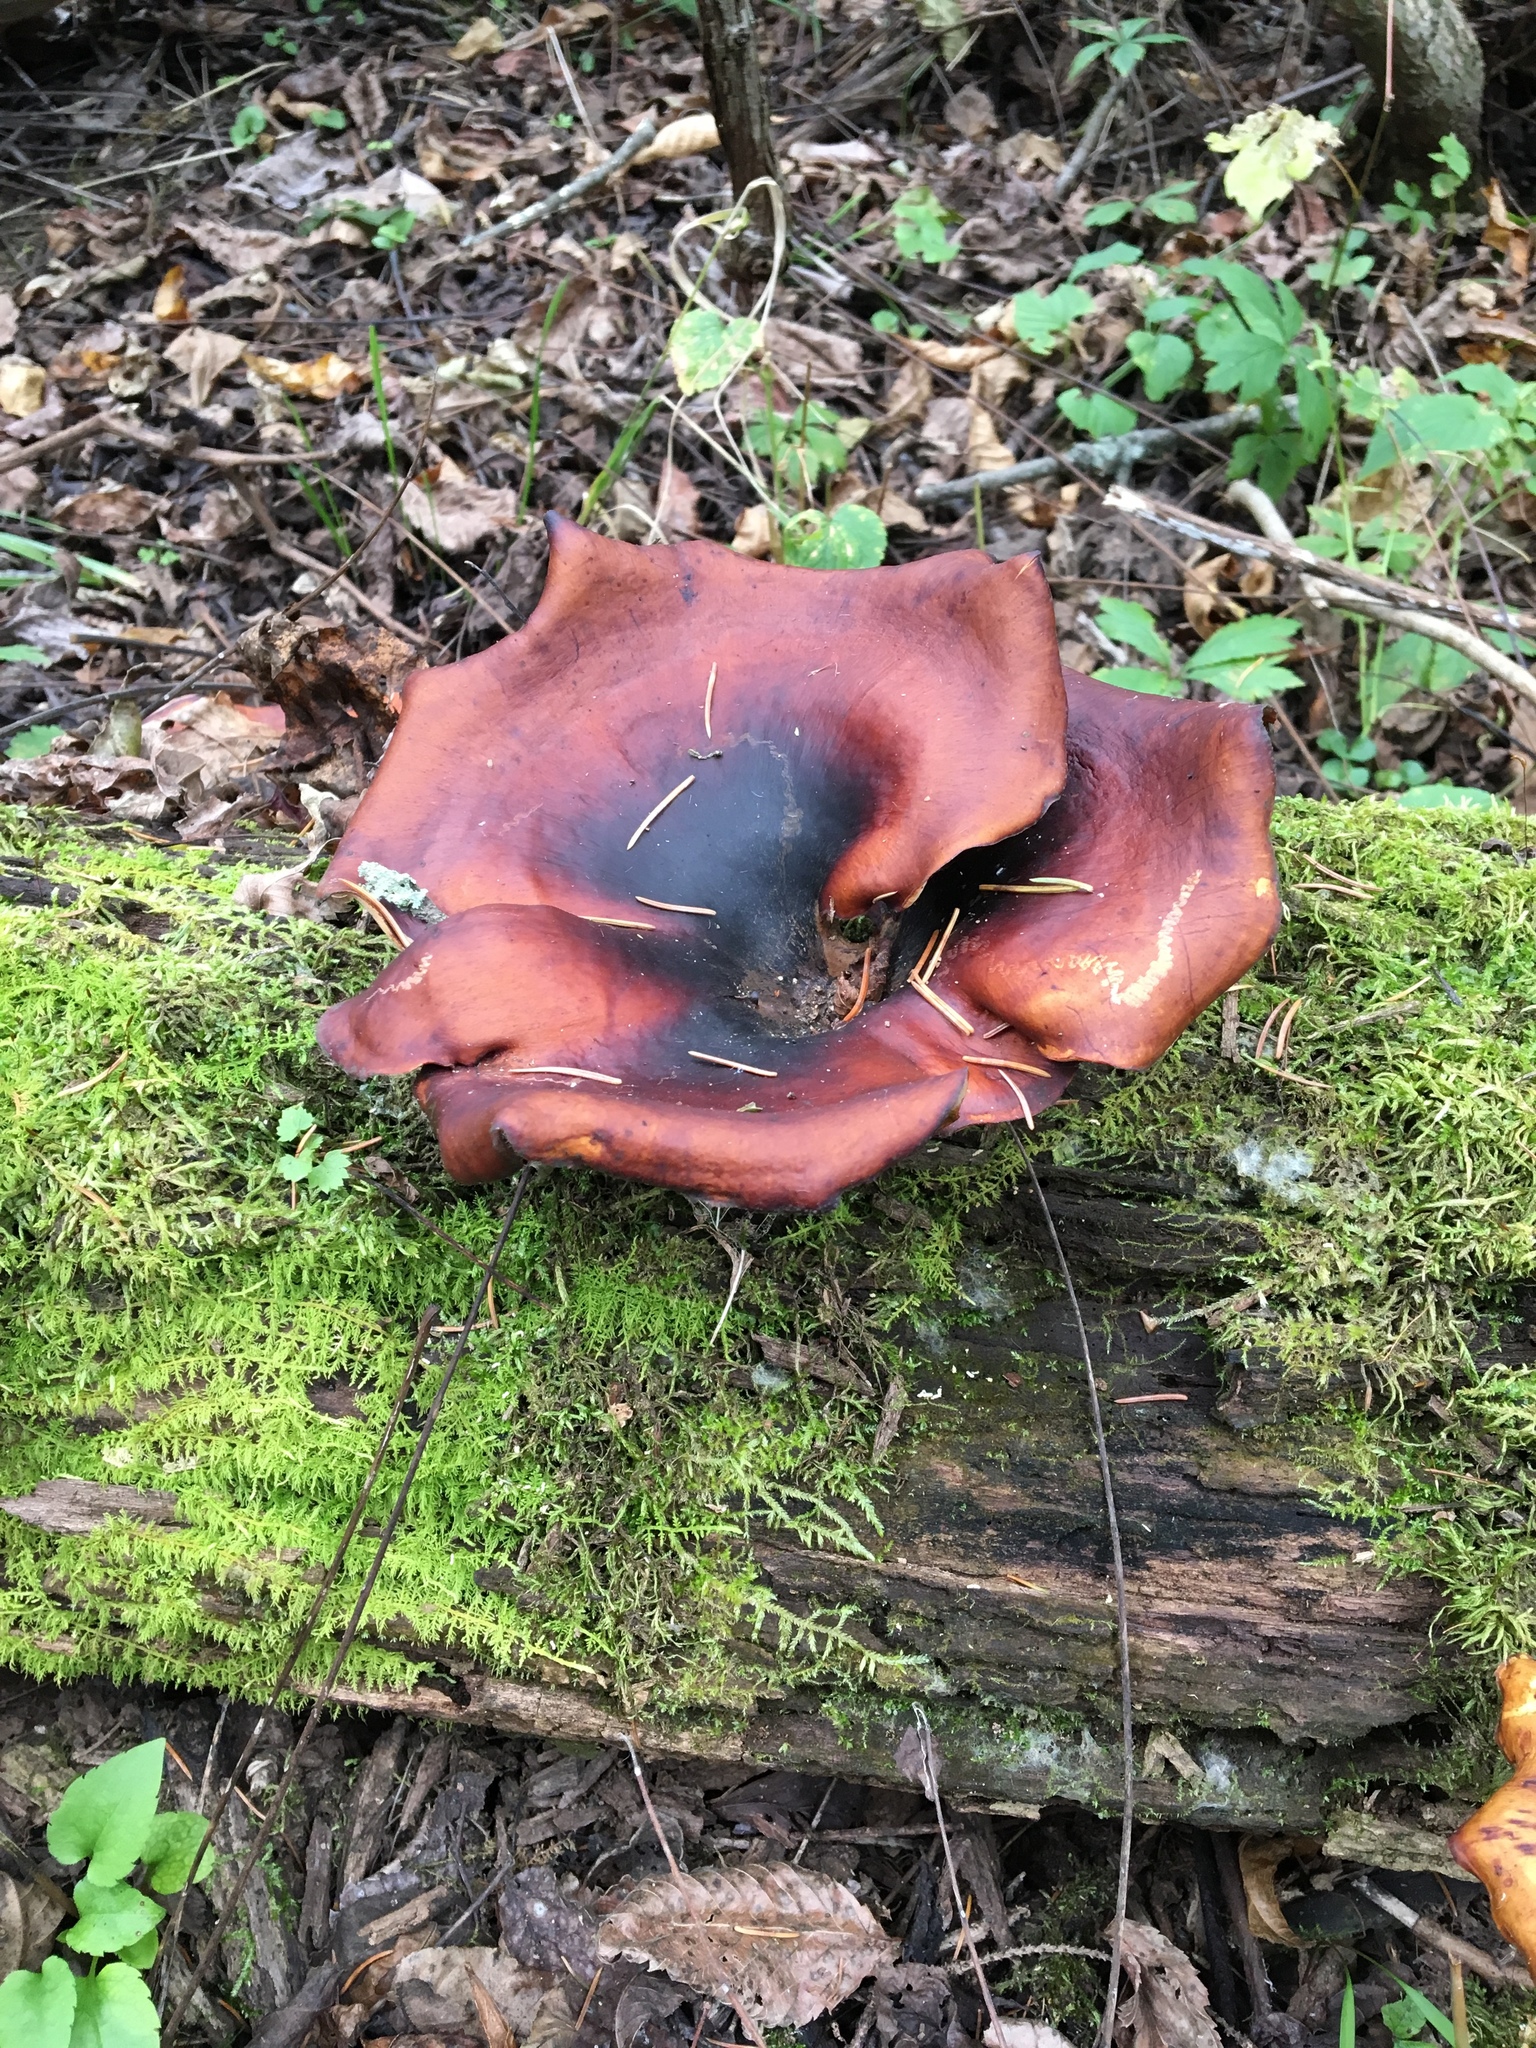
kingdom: Fungi
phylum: Basidiomycota
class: Agaricomycetes
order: Polyporales
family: Polyporaceae
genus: Picipes
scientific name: Picipes badius
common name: Bay polypore
